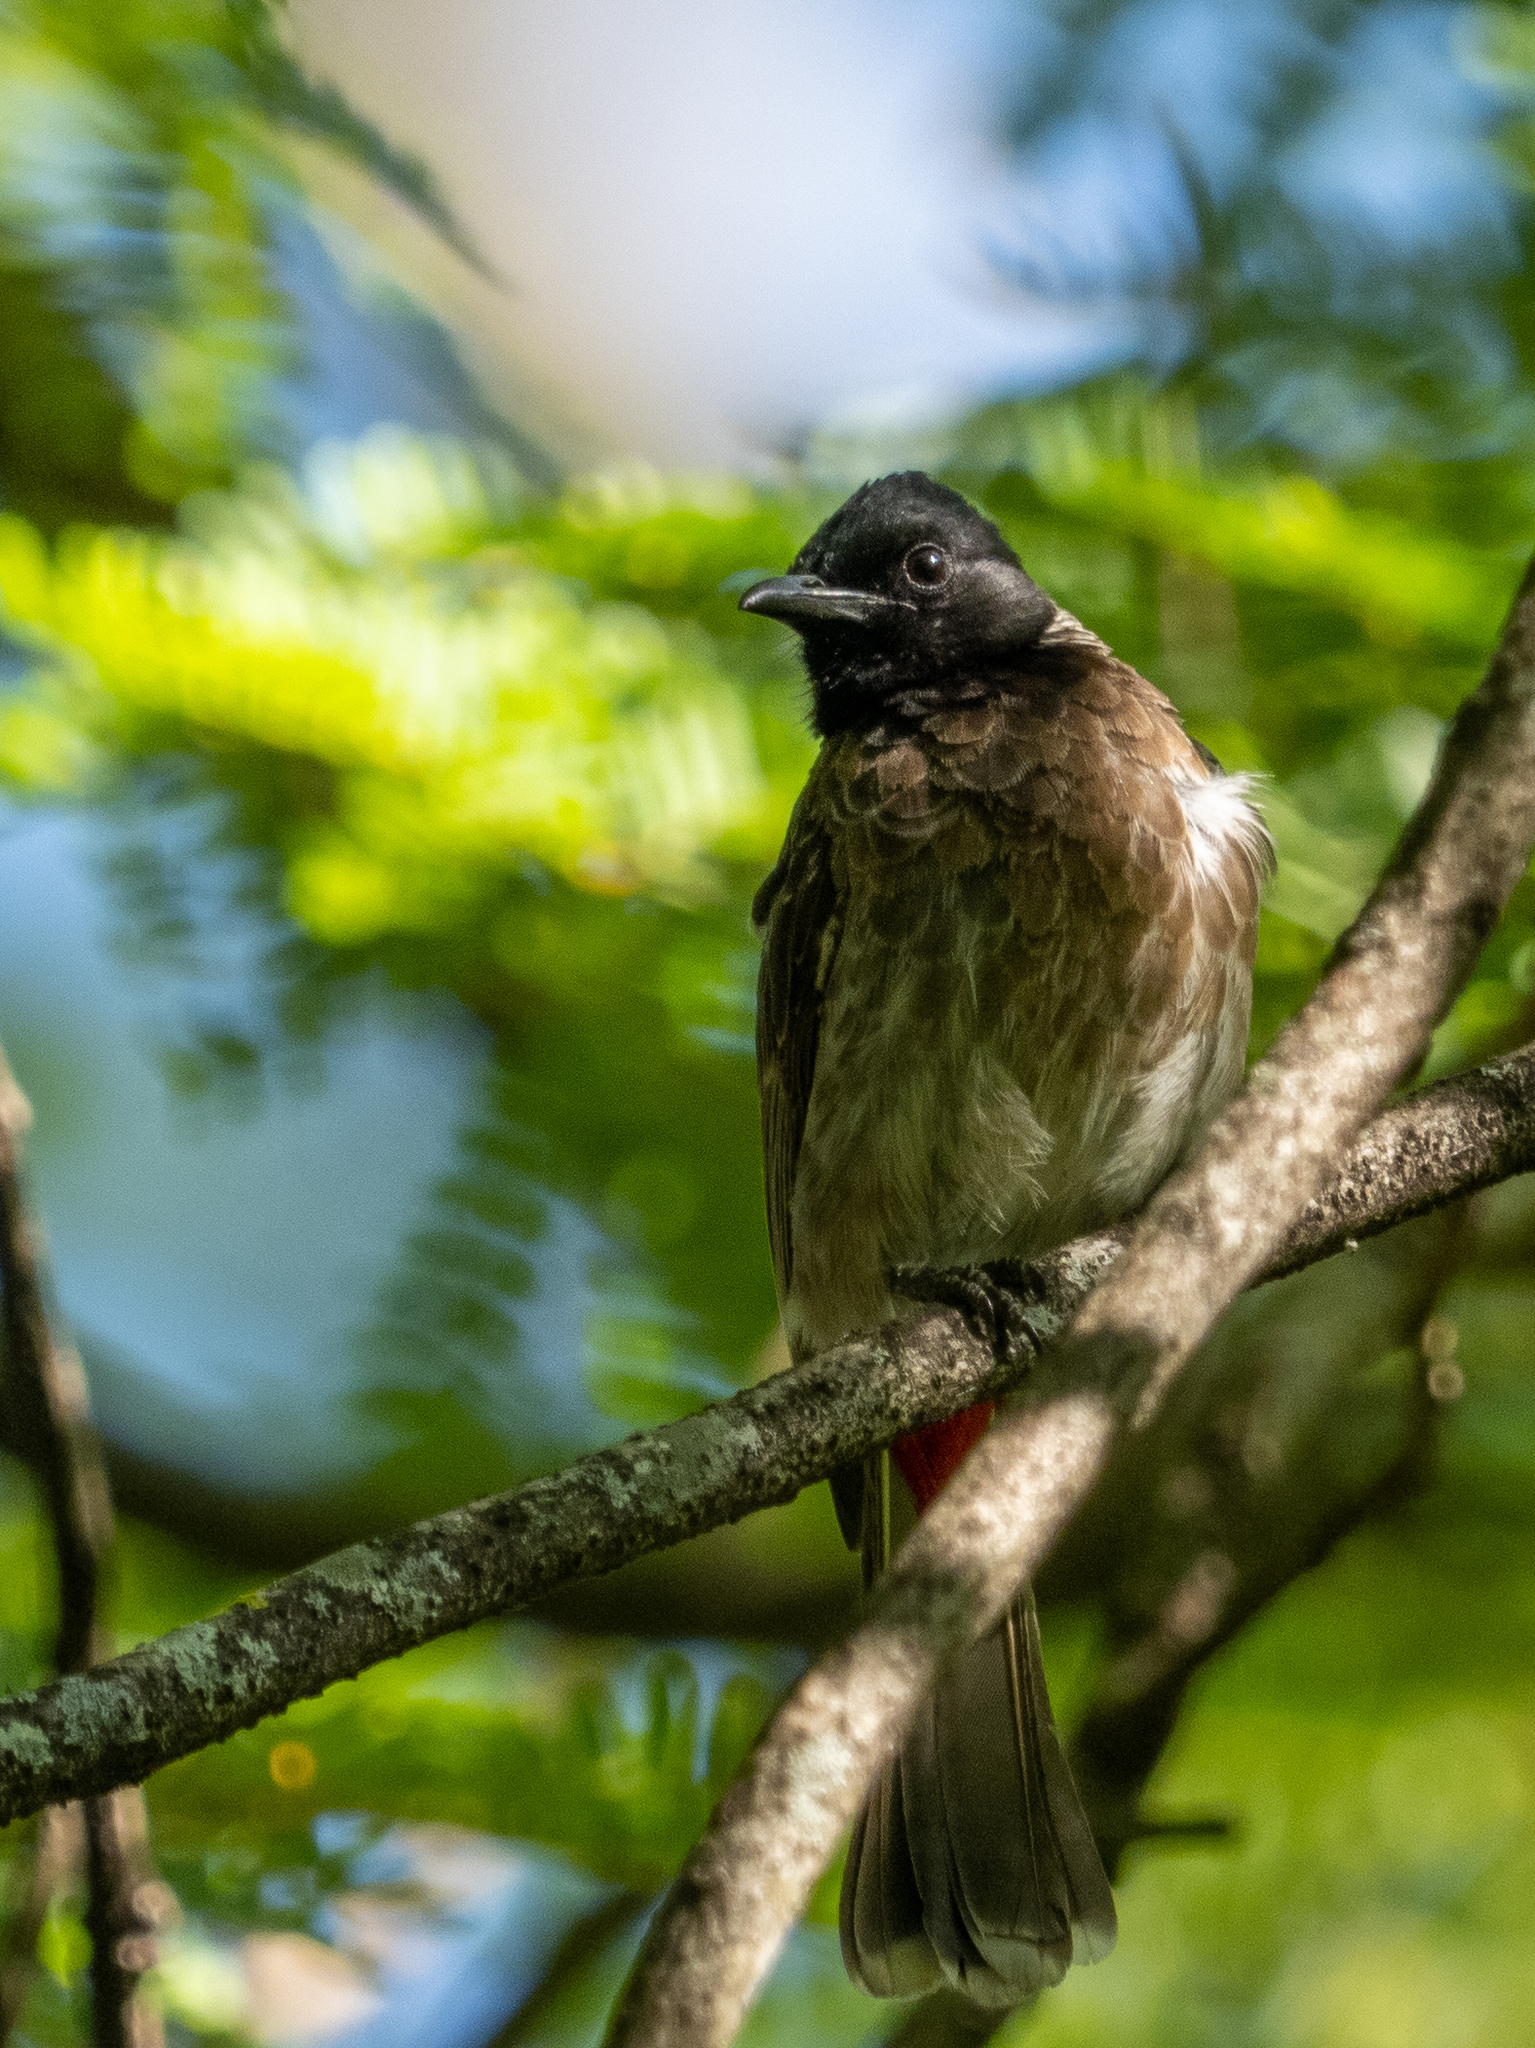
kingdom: Animalia
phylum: Chordata
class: Aves
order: Passeriformes
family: Pycnonotidae
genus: Pycnonotus
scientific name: Pycnonotus cafer
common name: Red-vented bulbul
